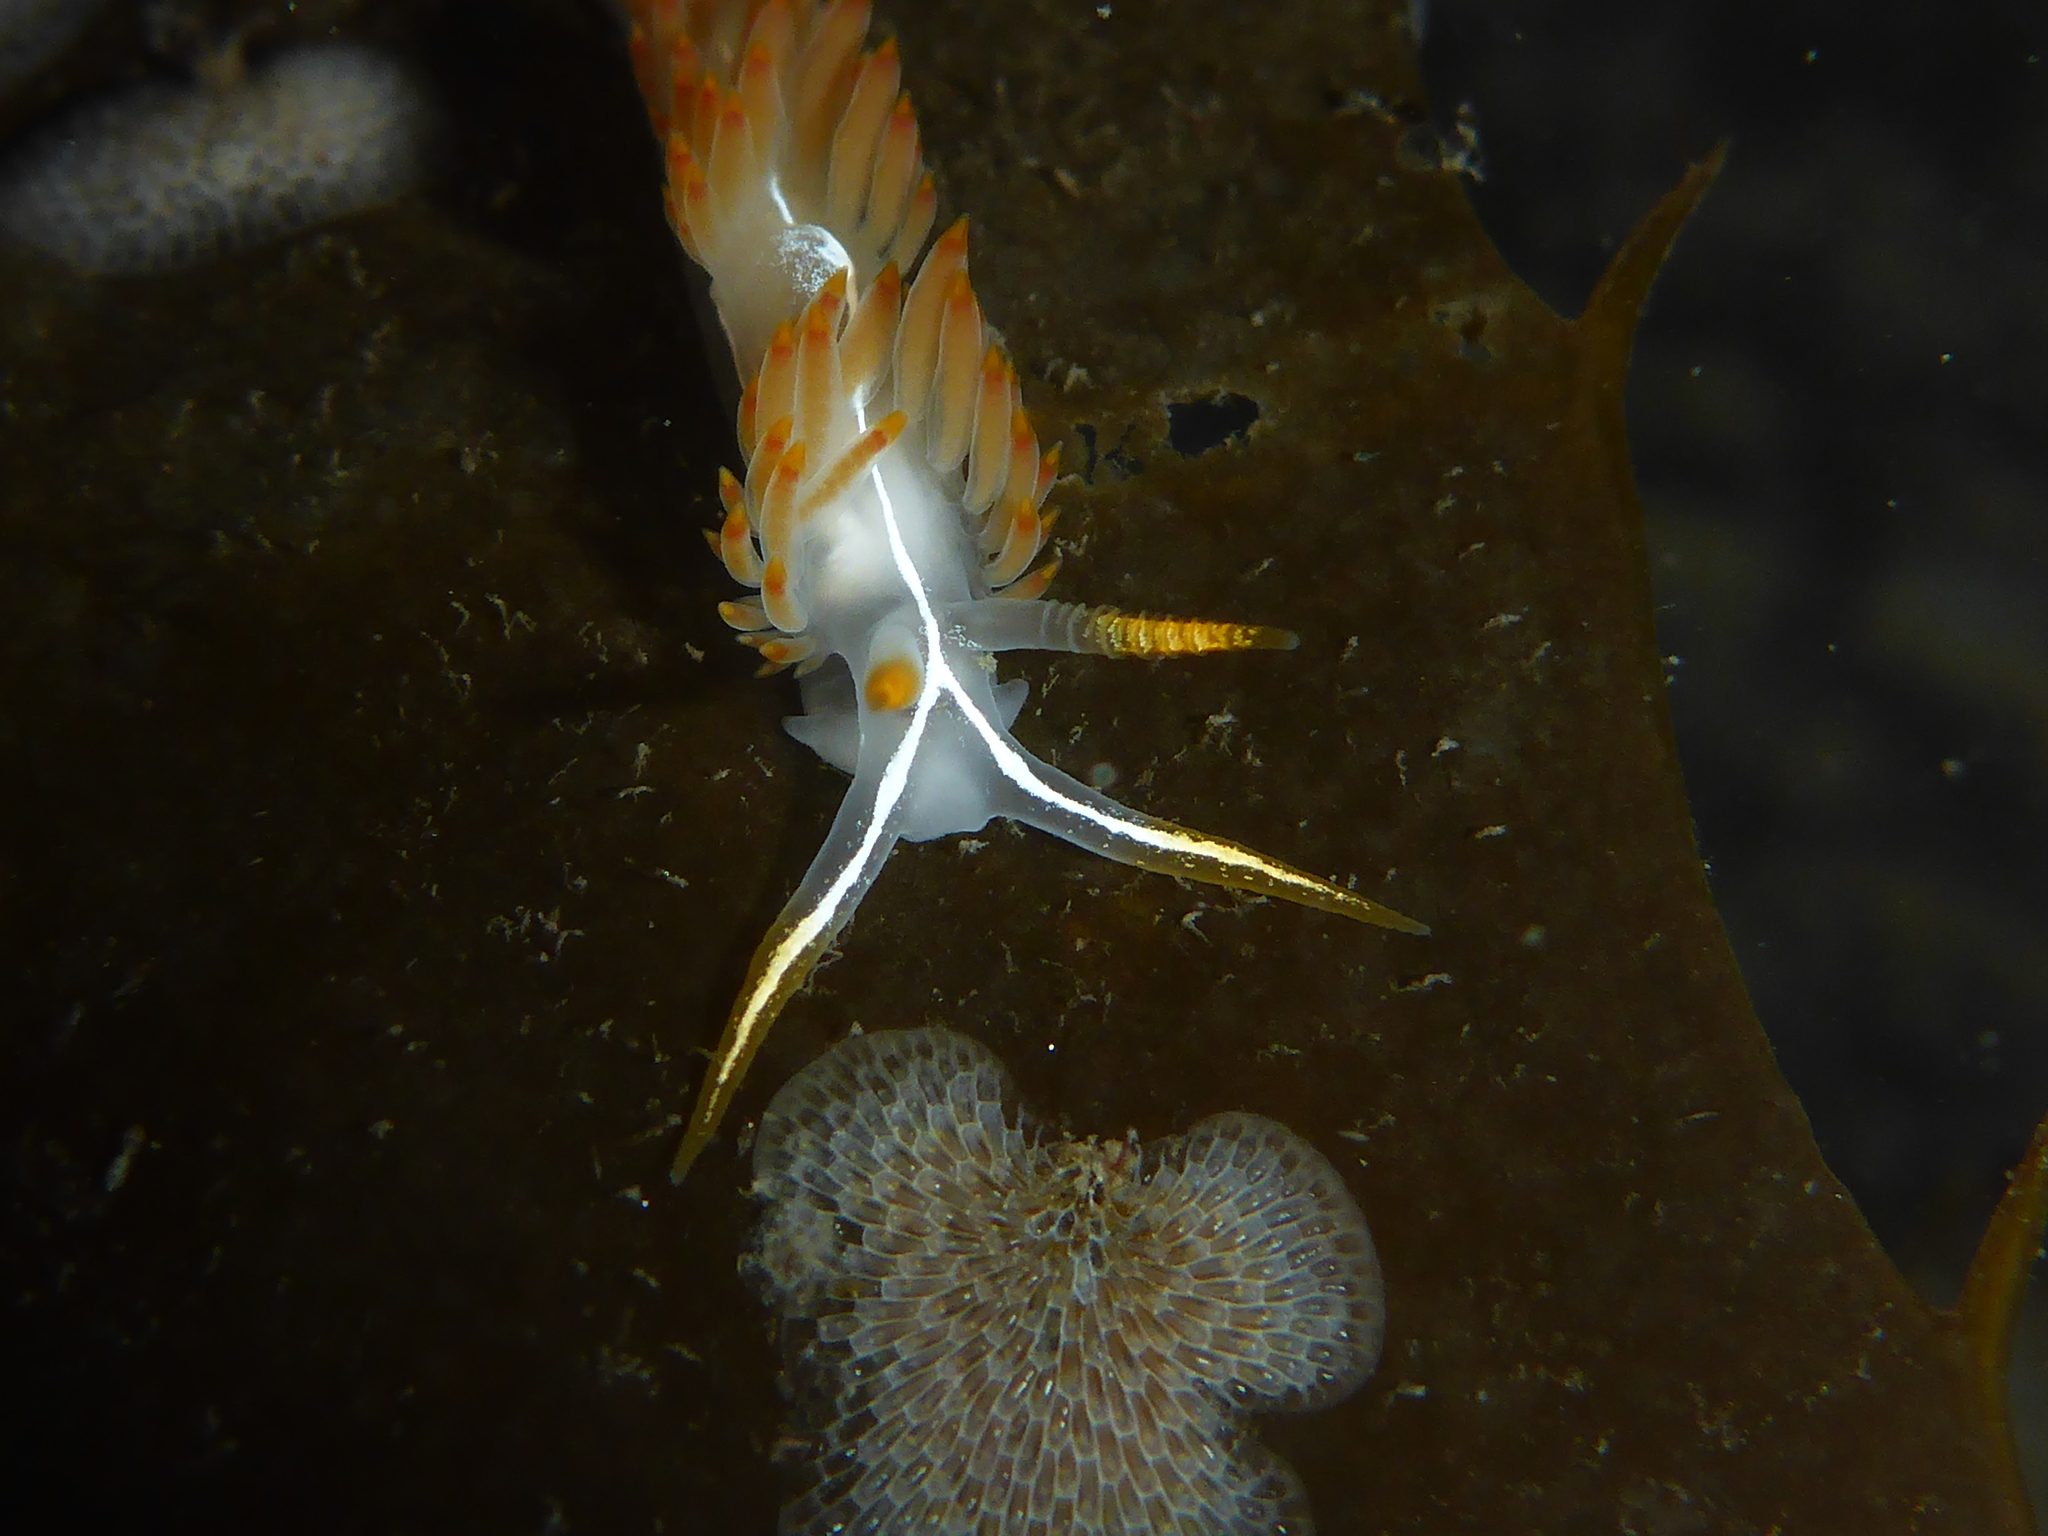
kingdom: Animalia
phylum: Mollusca
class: Gastropoda
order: Nudibranchia
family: Coryphellidae
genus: Coryphella
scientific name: Coryphella trilineata
